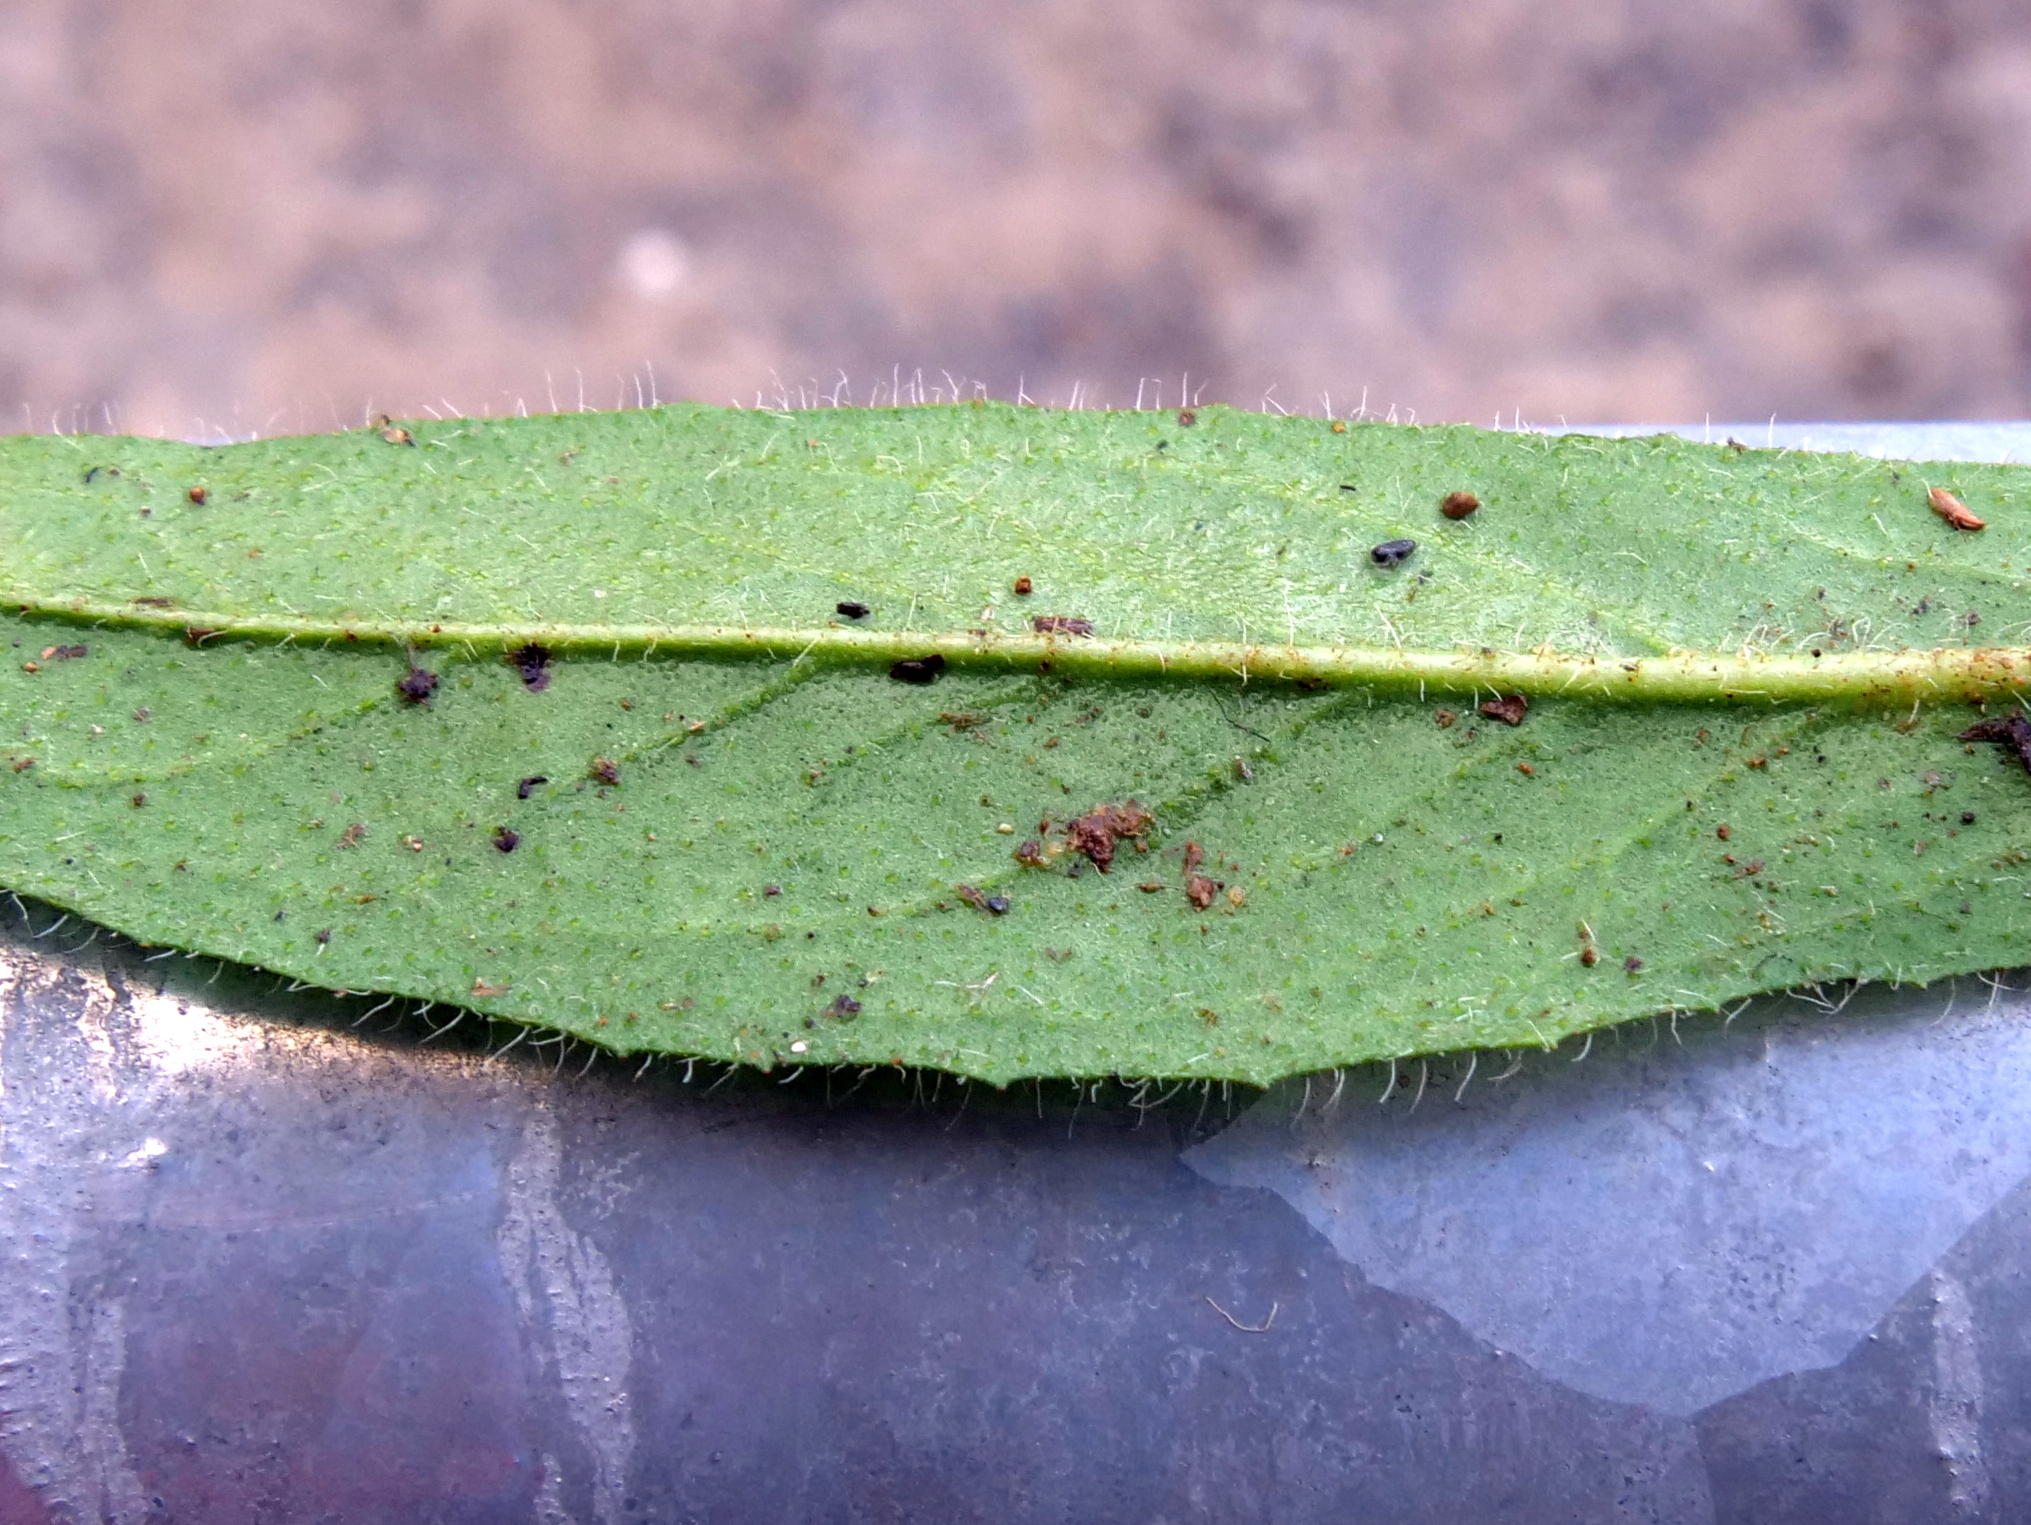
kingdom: Plantae
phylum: Tracheophyta
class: Magnoliopsida
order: Asterales
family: Asteraceae
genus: Pilosella
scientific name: Pilosella caespitosa
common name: Yellow fox-and-cubs
